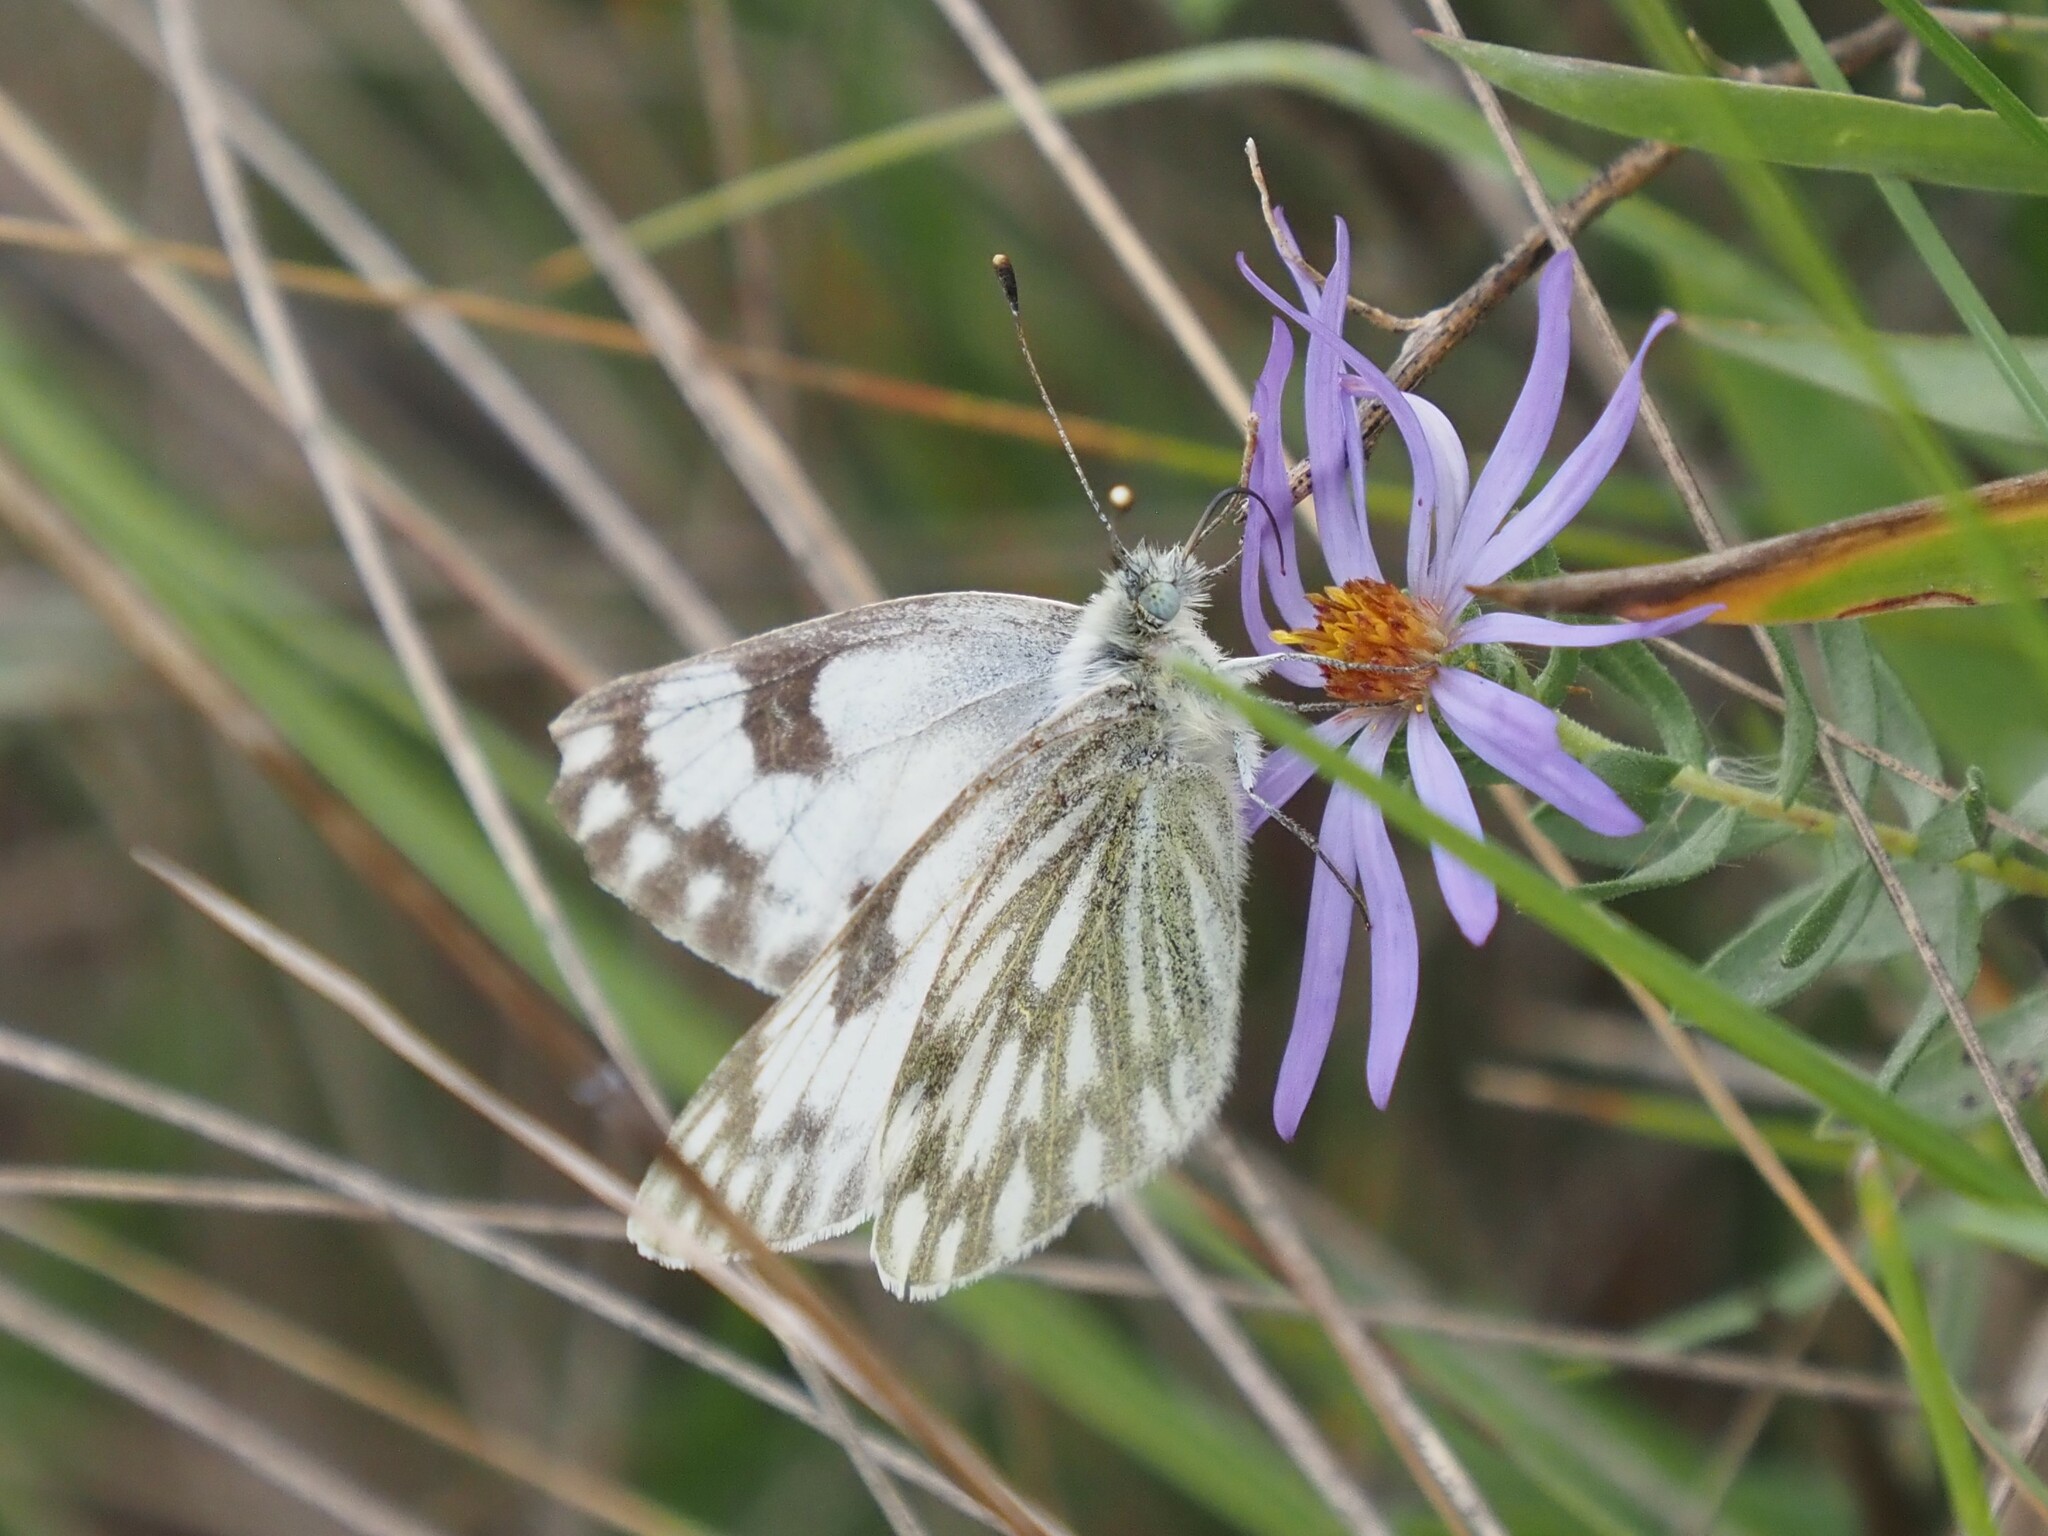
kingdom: Animalia
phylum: Arthropoda
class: Insecta
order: Lepidoptera
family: Pieridae
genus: Pontia
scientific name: Pontia occidentalis
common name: Western white
